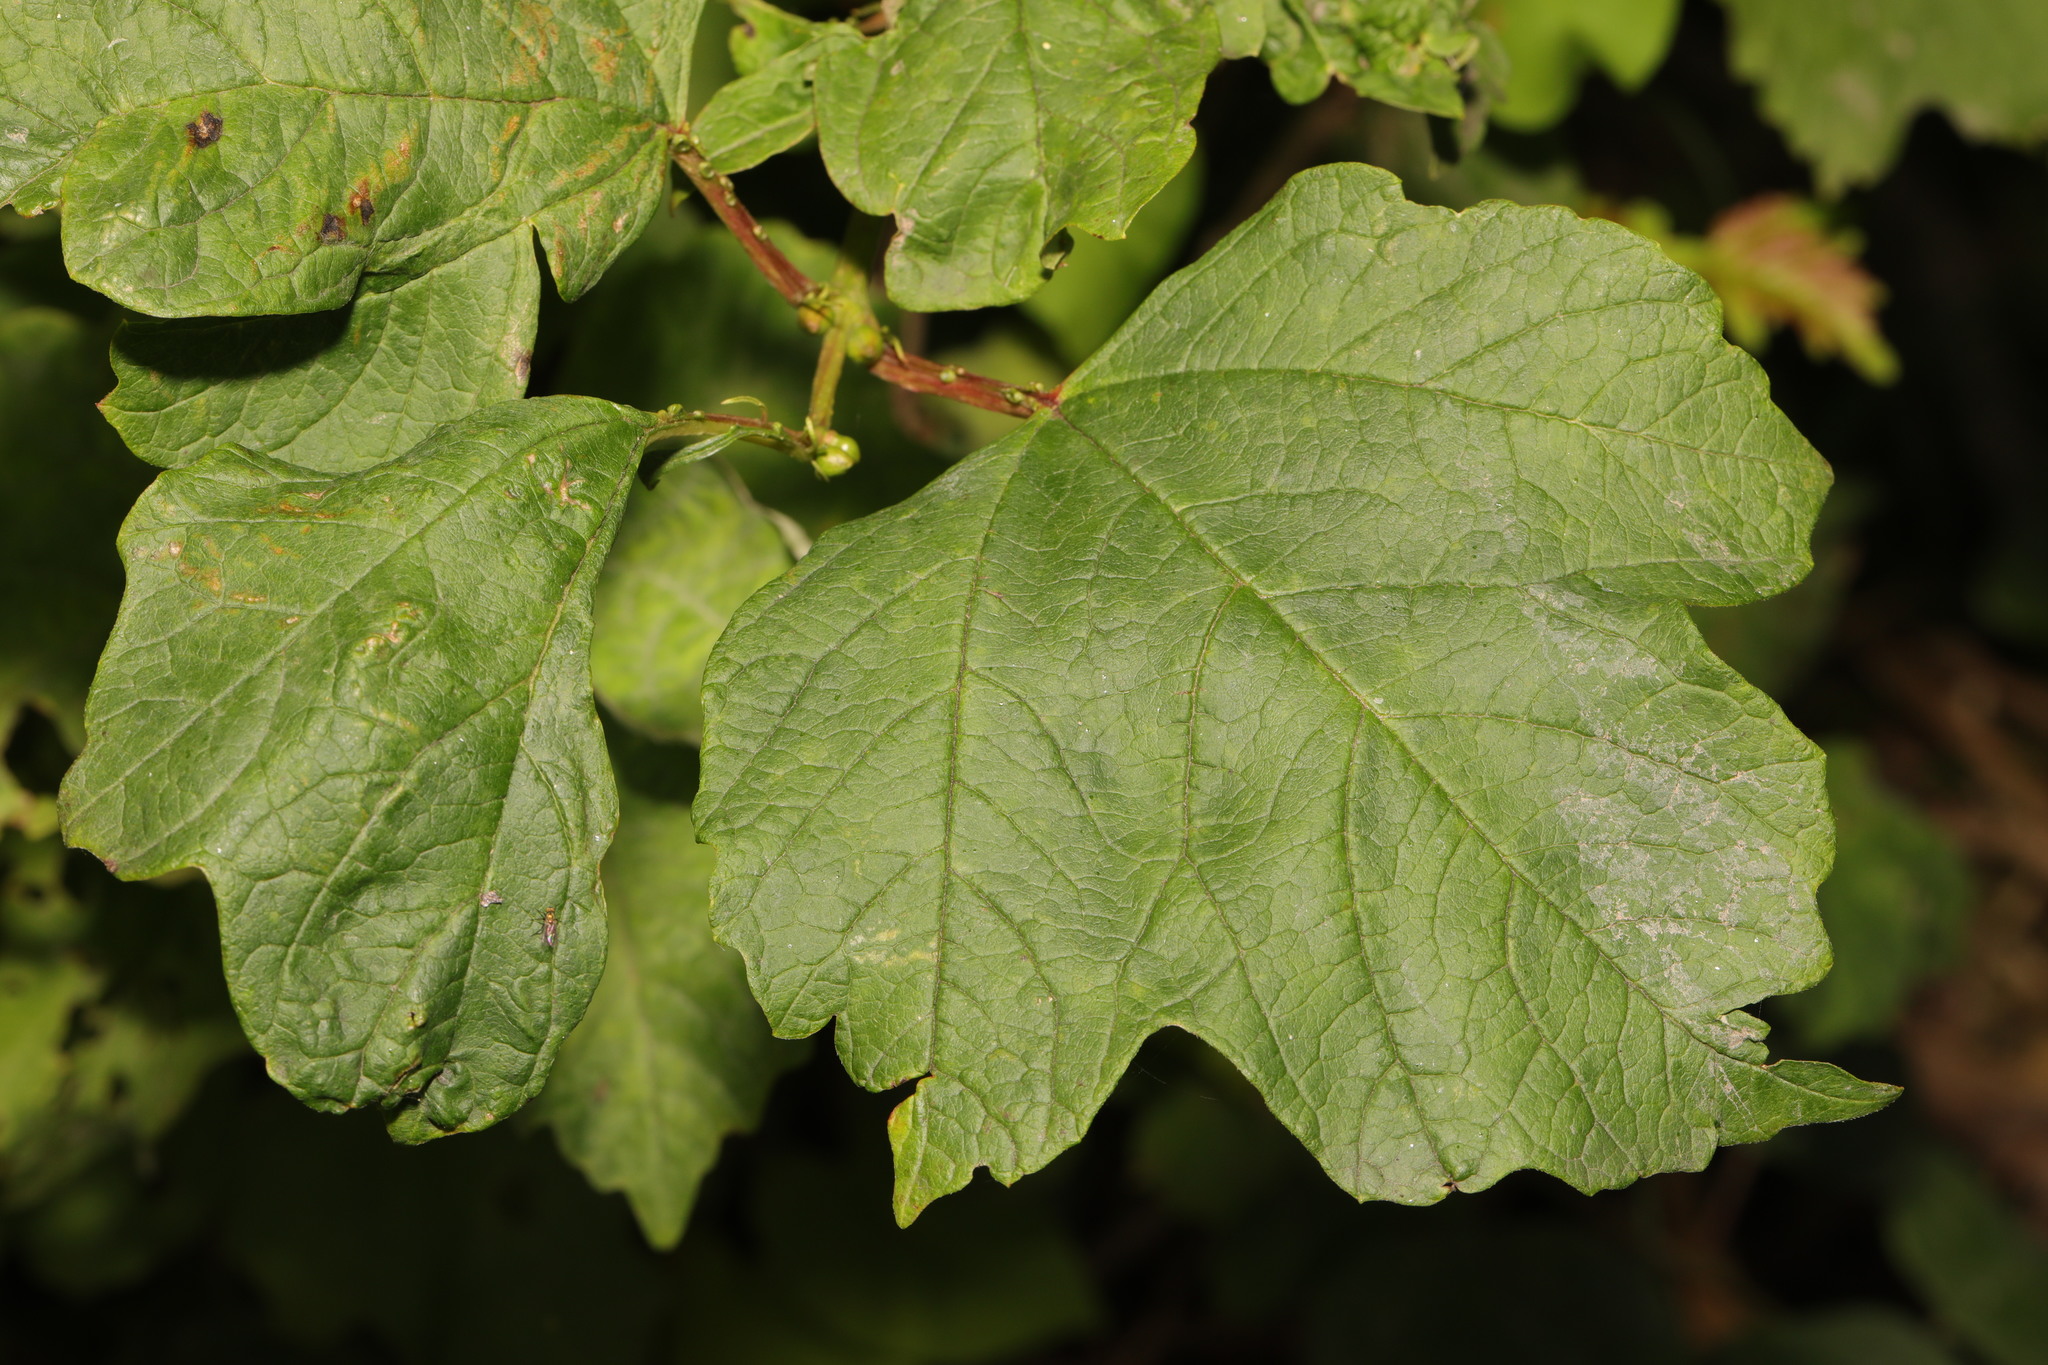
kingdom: Plantae
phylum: Tracheophyta
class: Magnoliopsida
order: Dipsacales
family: Viburnaceae
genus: Viburnum
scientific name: Viburnum opulus
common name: Guelder-rose
